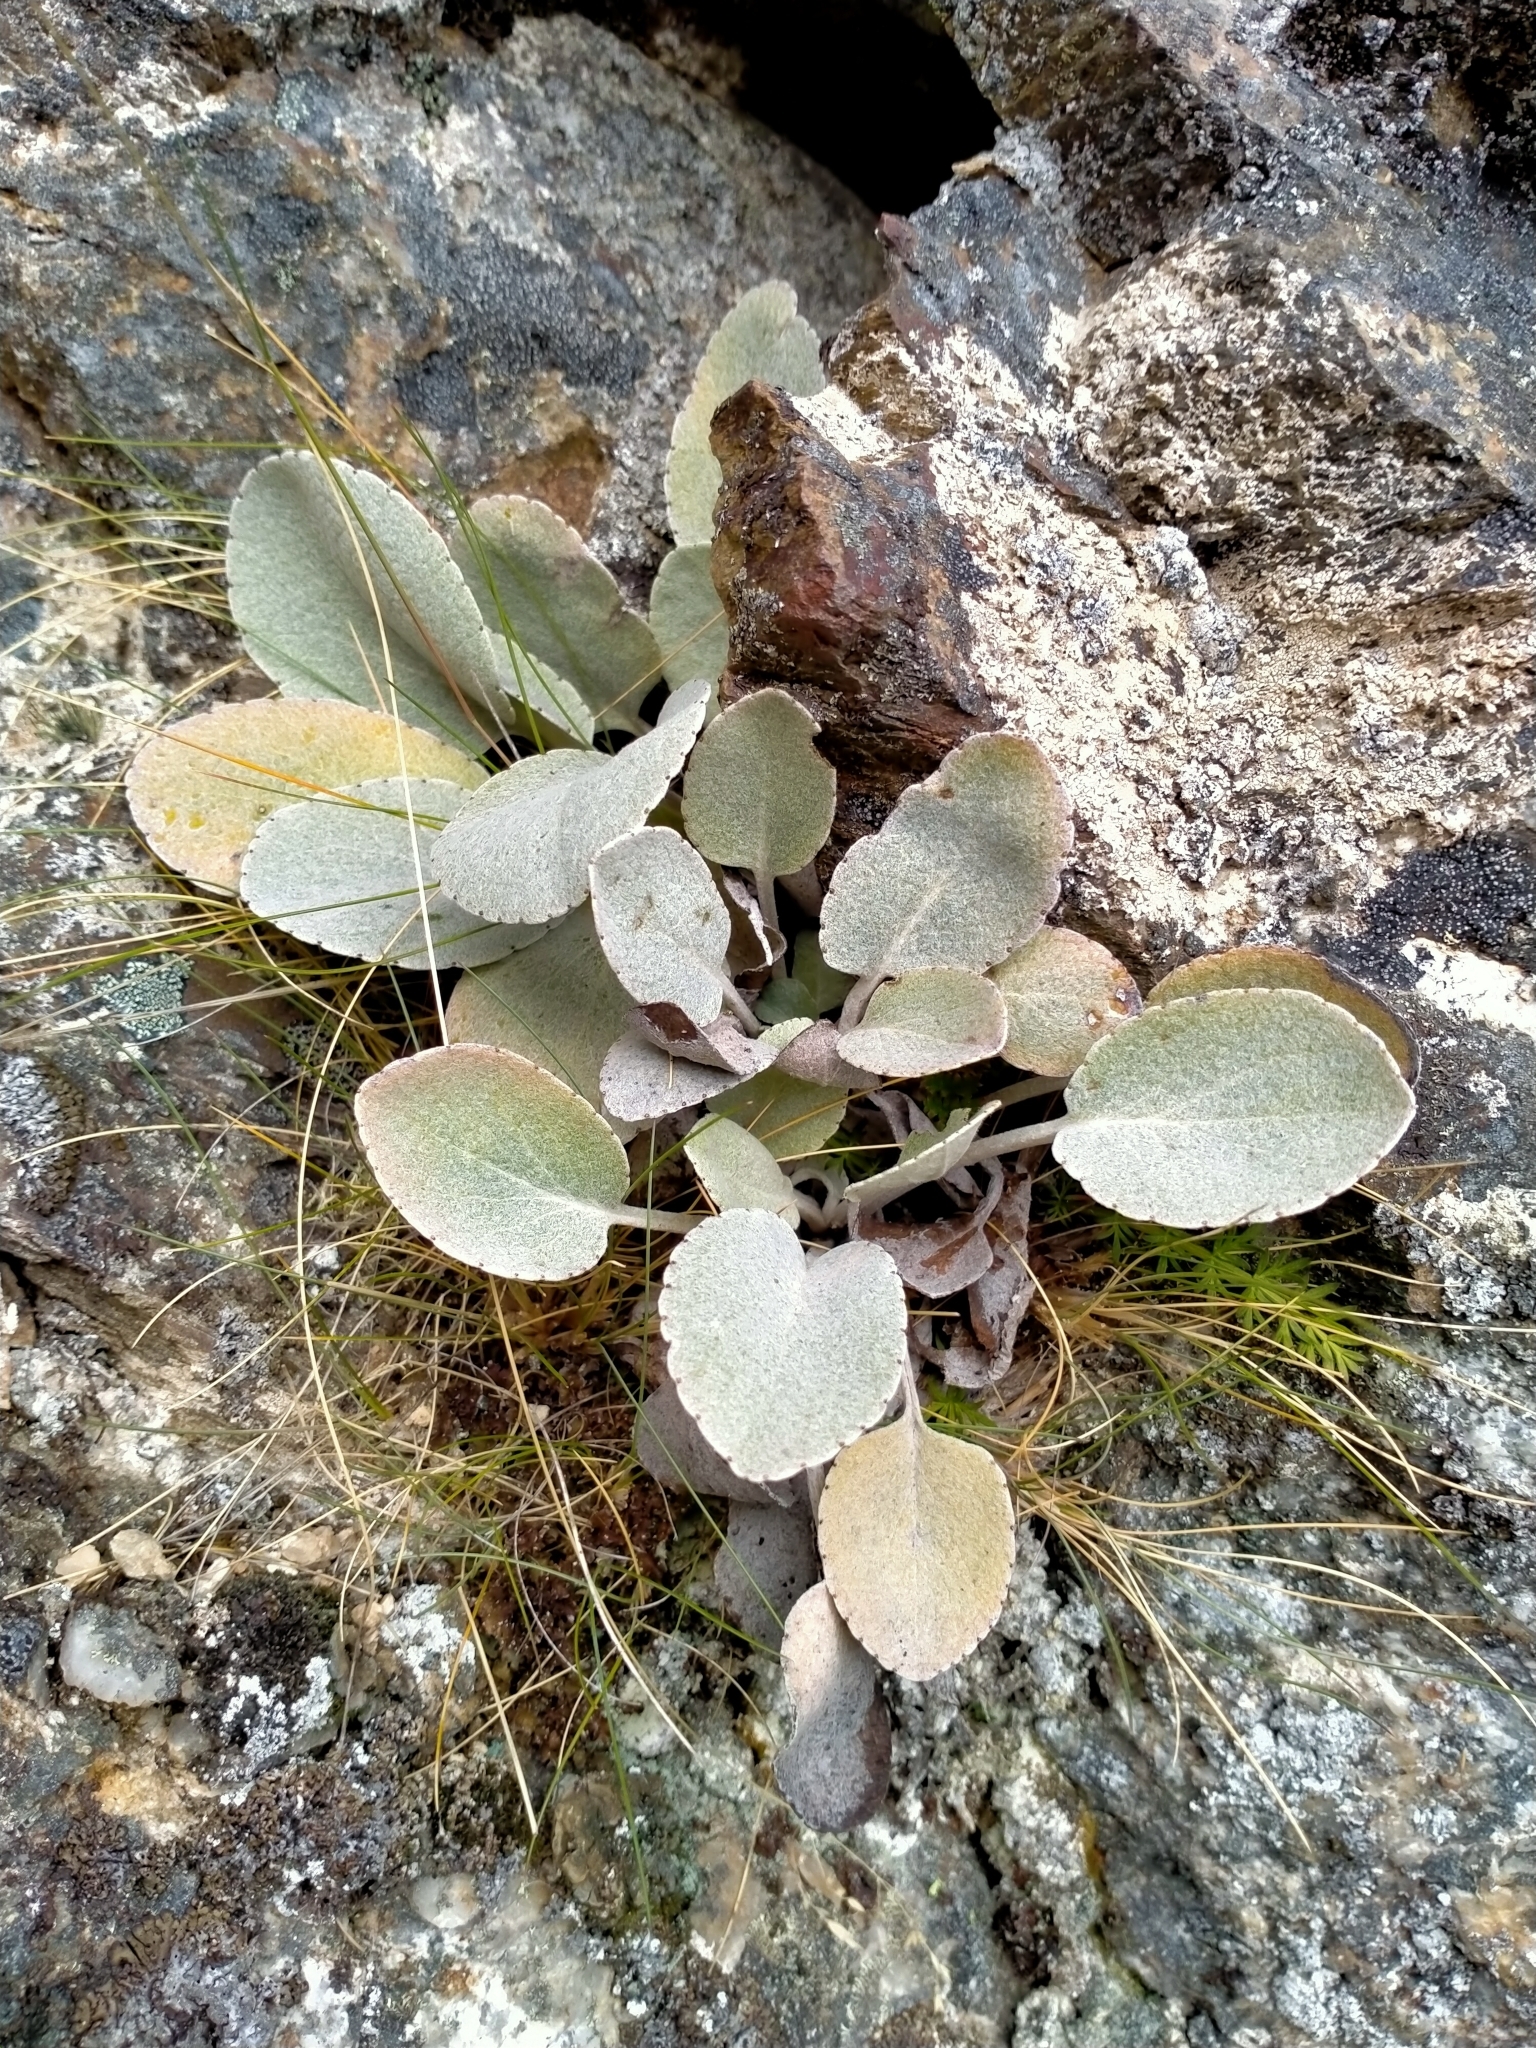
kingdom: Plantae
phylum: Tracheophyta
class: Magnoliopsida
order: Asterales
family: Asteraceae
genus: Brachyglottis
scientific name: Brachyglottis haastii
